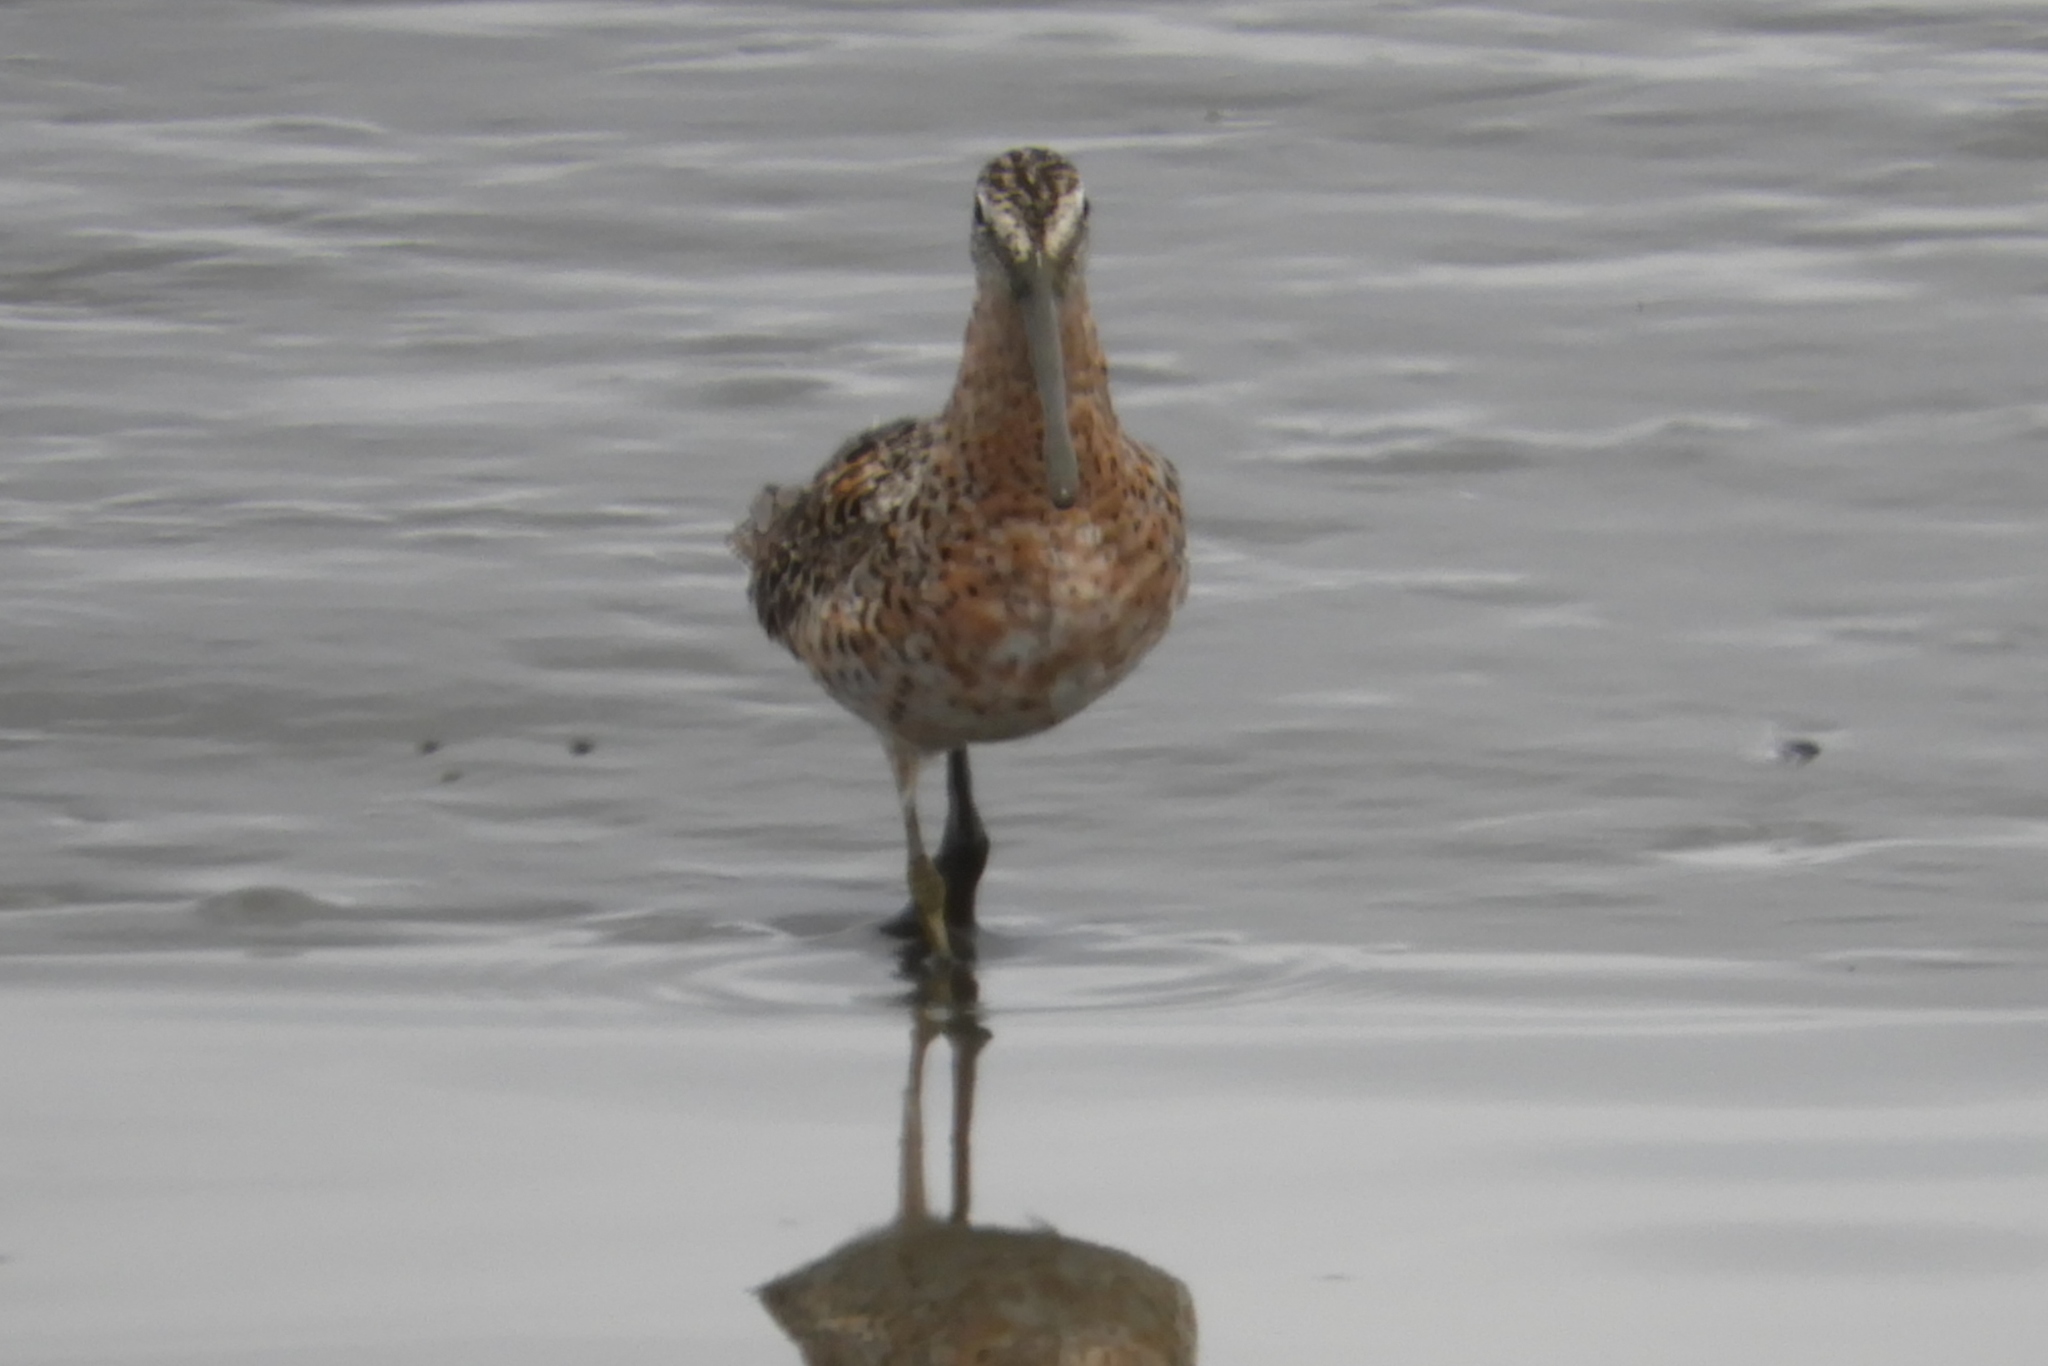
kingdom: Animalia
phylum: Chordata
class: Aves
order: Charadriiformes
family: Scolopacidae
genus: Limnodromus
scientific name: Limnodromus griseus
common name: Short-billed dowitcher
